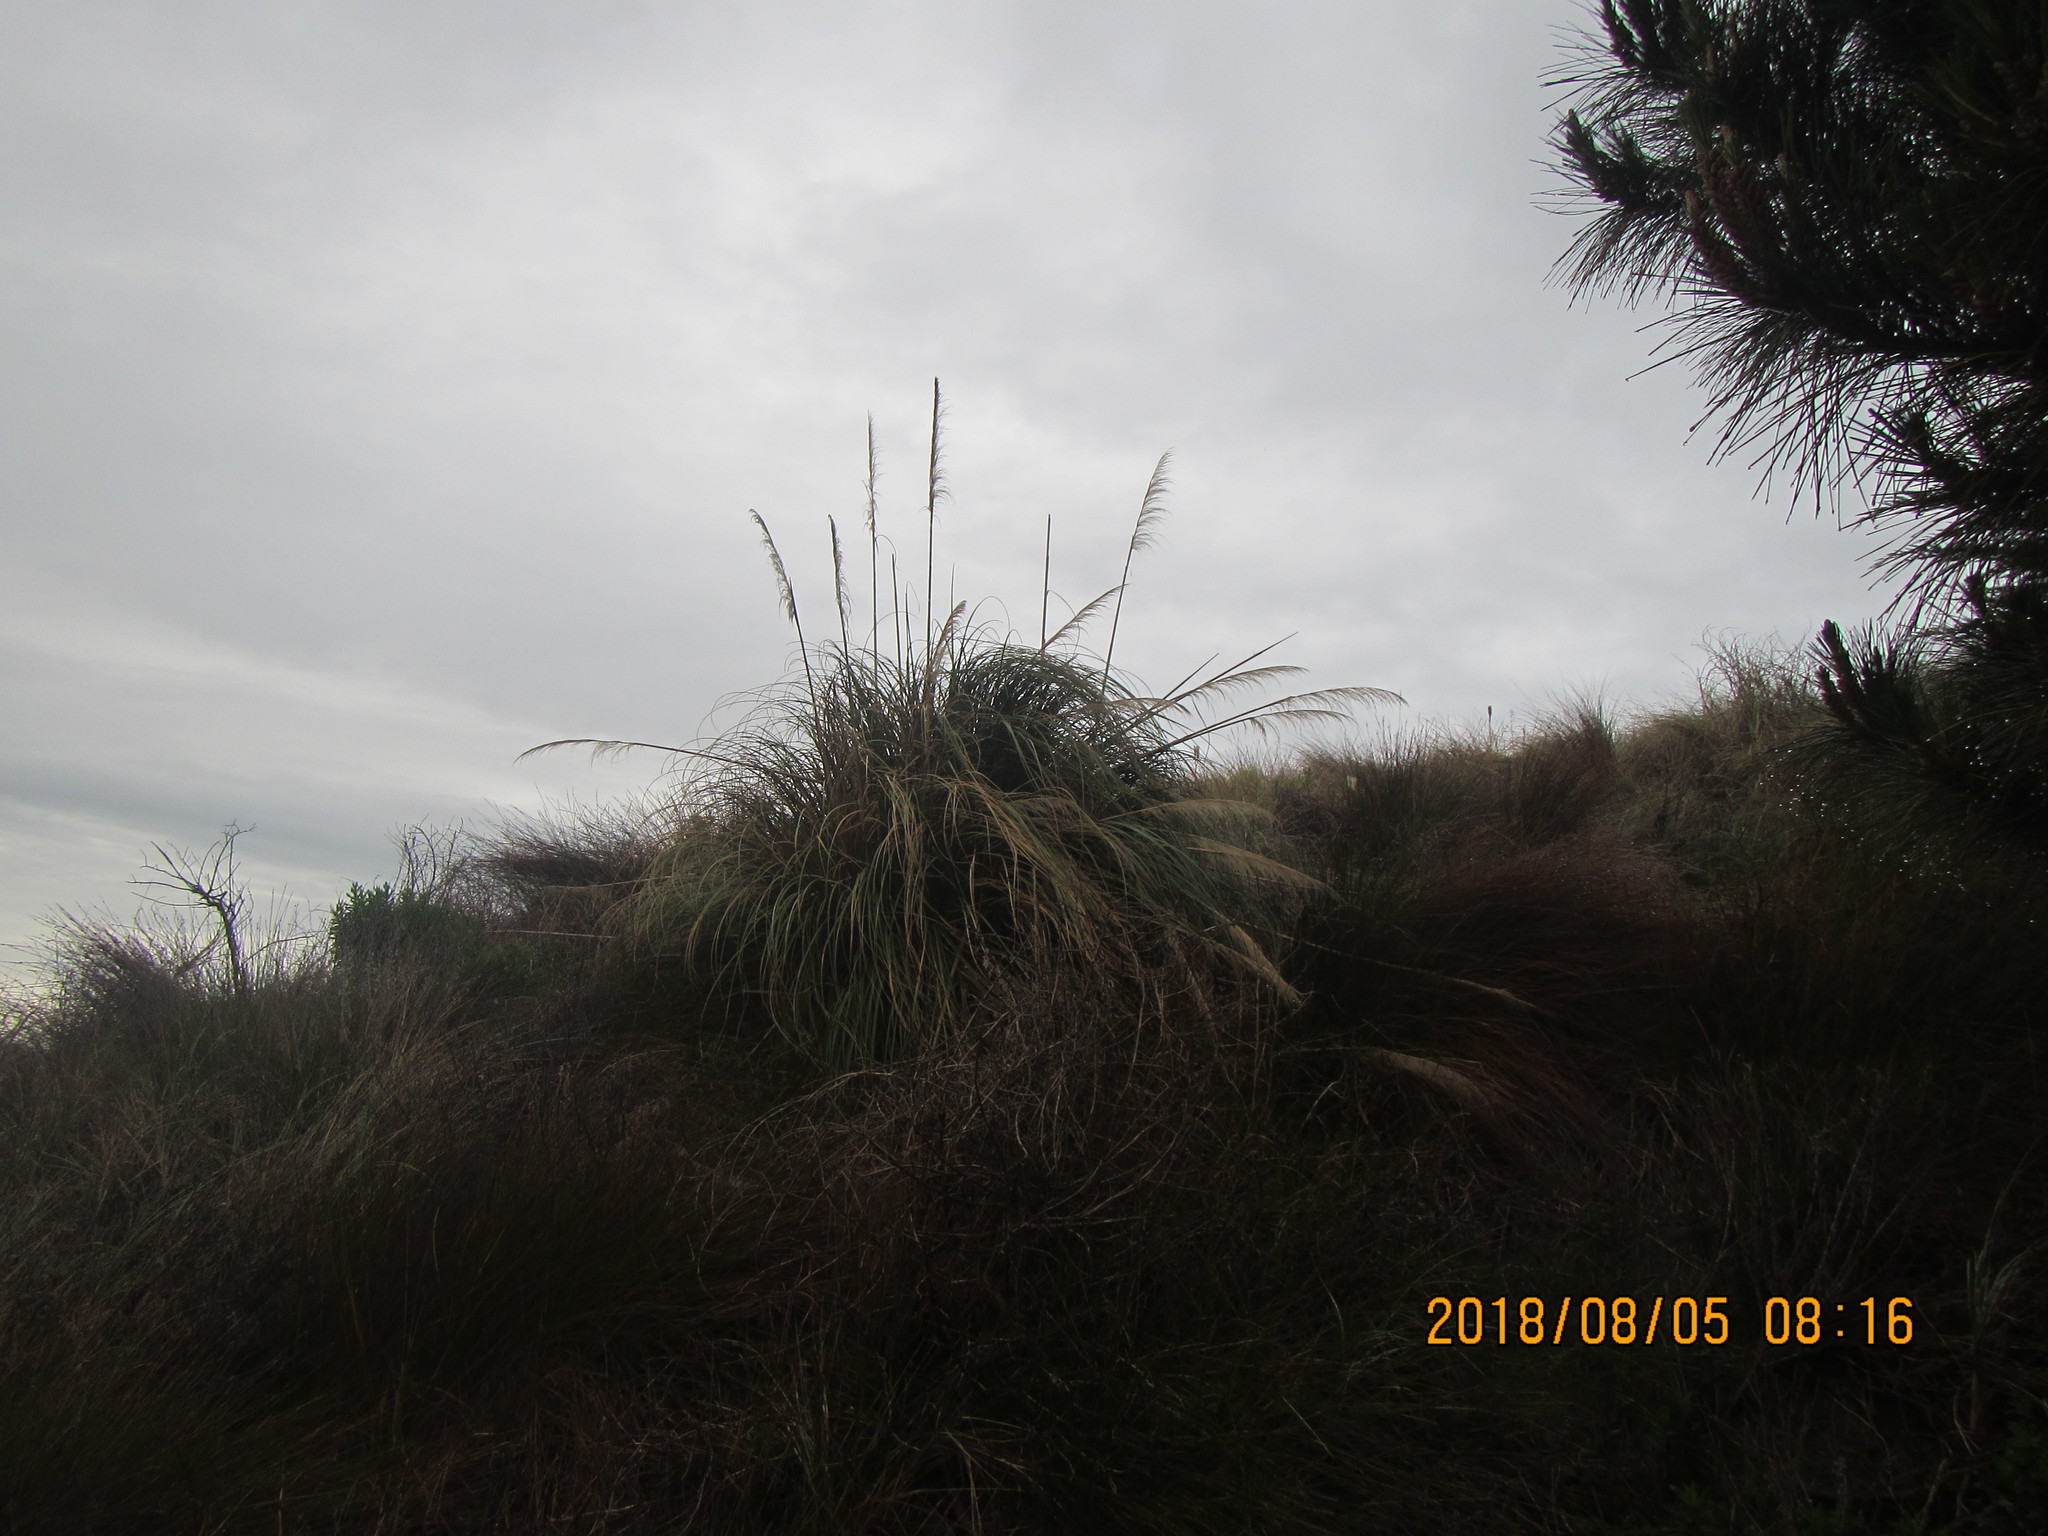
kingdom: Plantae
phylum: Tracheophyta
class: Liliopsida
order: Poales
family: Poaceae
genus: Cortaderia
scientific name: Cortaderia selloana
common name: Uruguayan pampas grass
